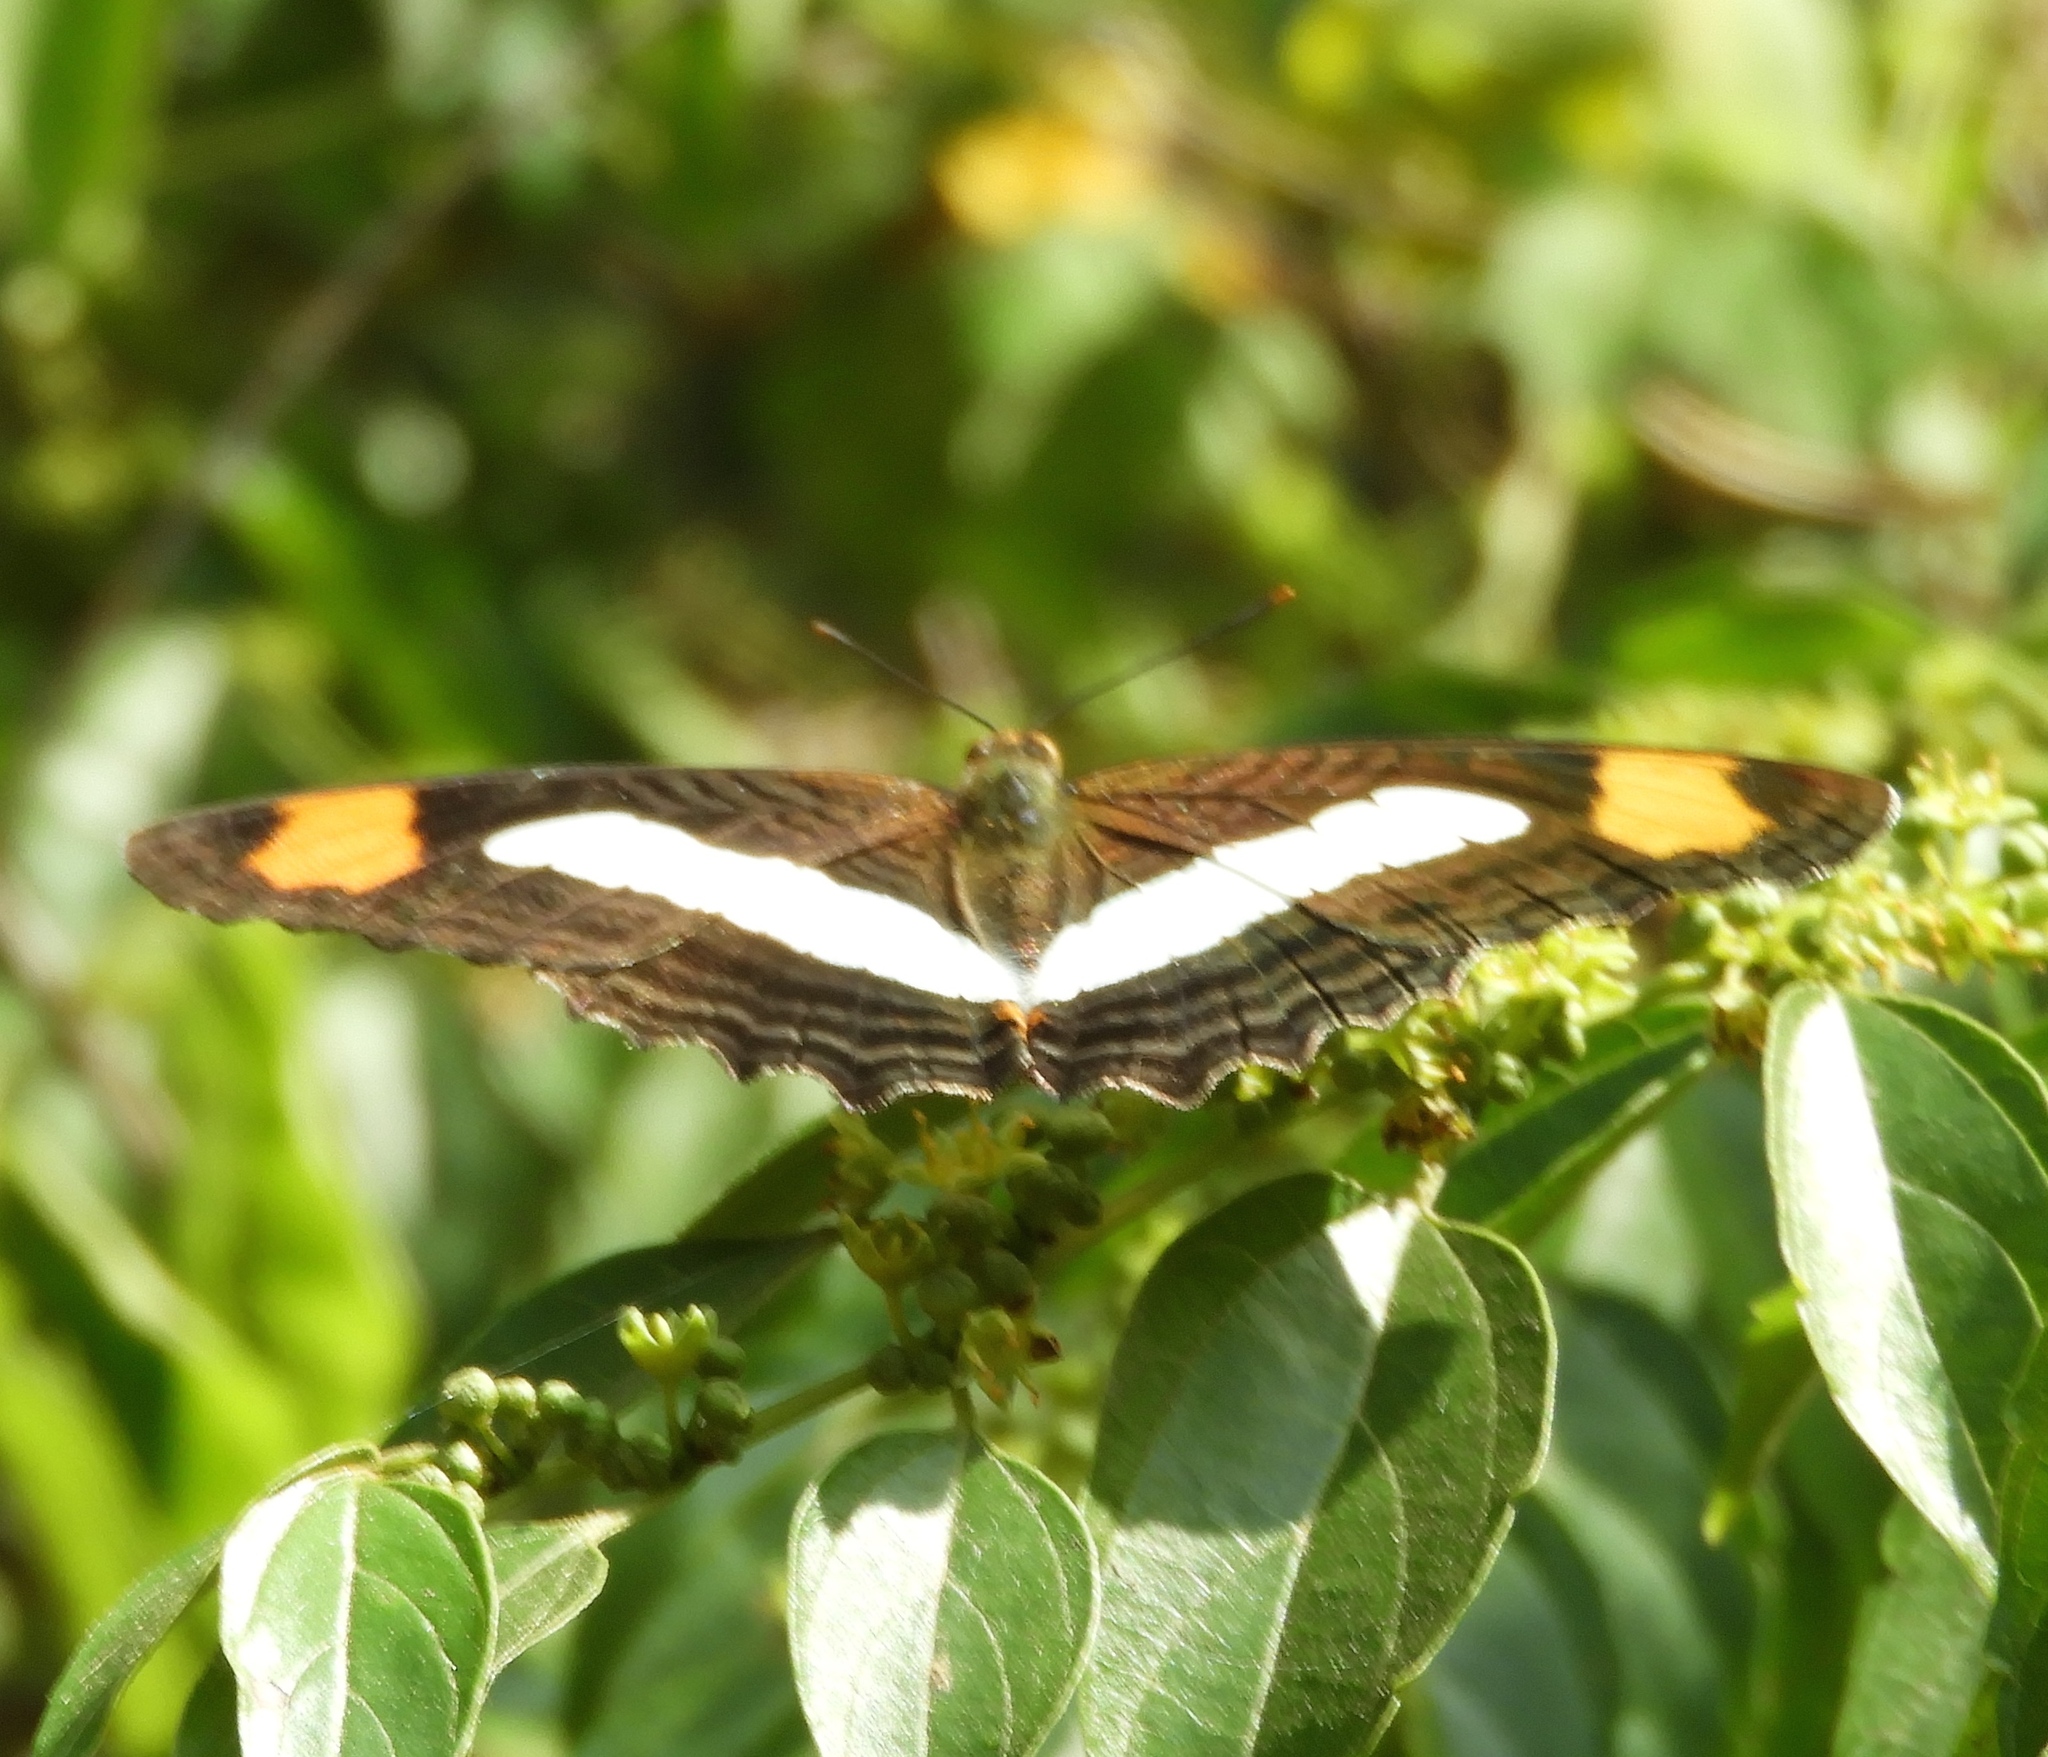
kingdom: Animalia
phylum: Arthropoda
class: Insecta
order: Lepidoptera
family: Nymphalidae
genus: Limenitis
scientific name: Limenitis iphiclus
